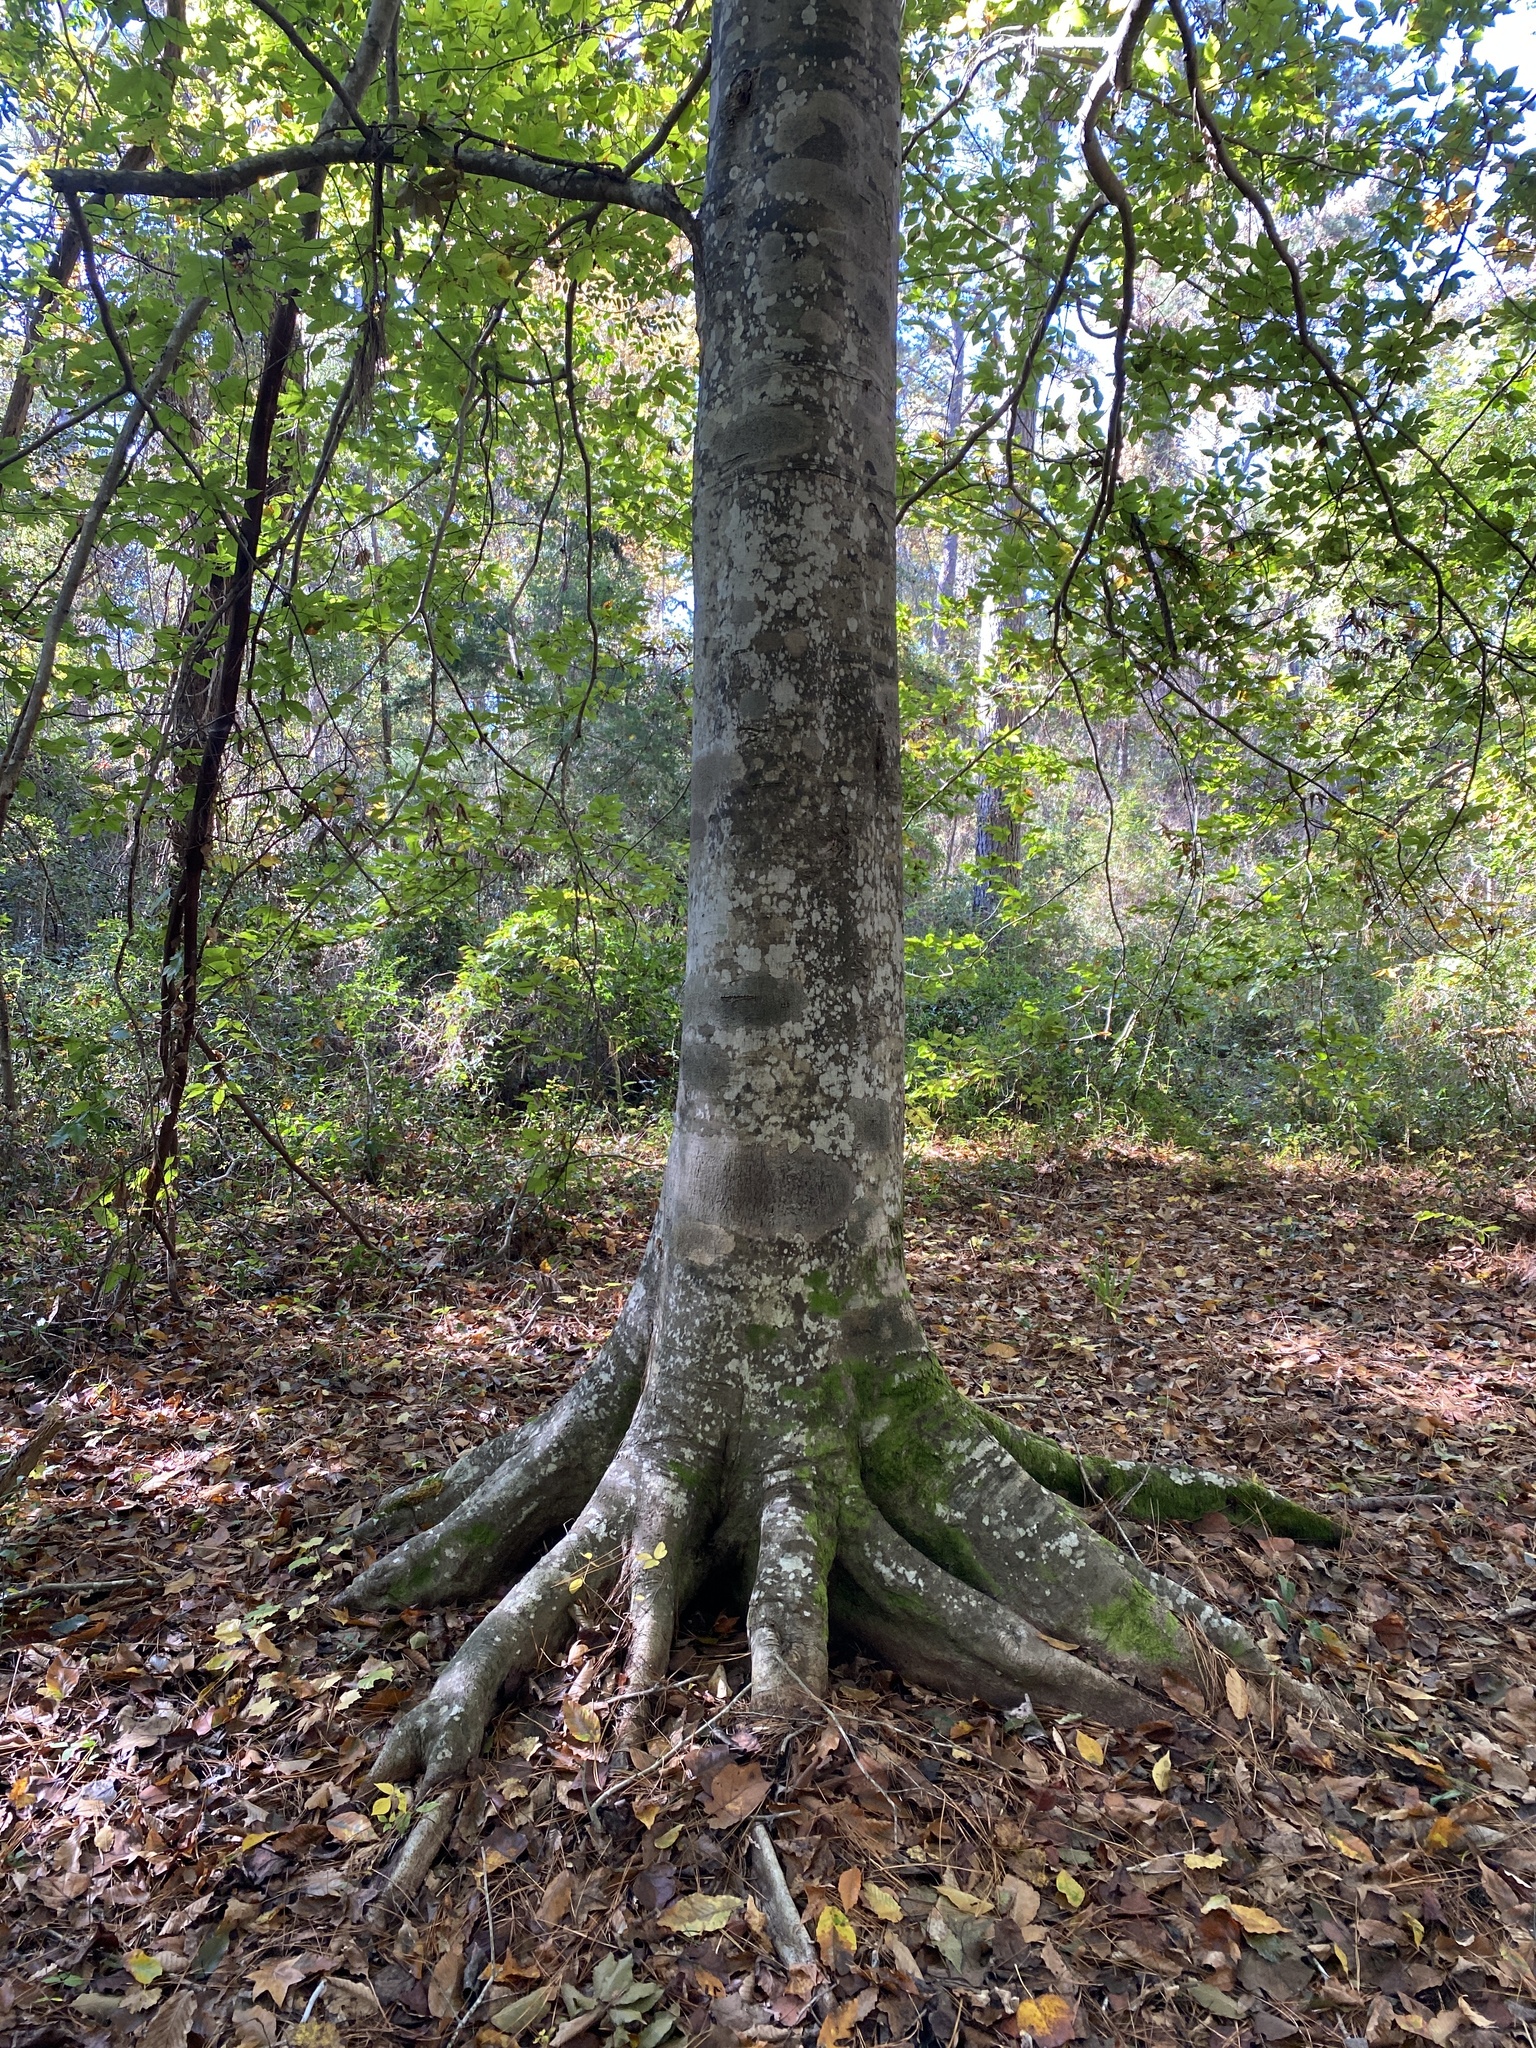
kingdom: Plantae
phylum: Tracheophyta
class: Magnoliopsida
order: Fagales
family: Fagaceae
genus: Fagus
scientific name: Fagus grandifolia
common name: American beech
